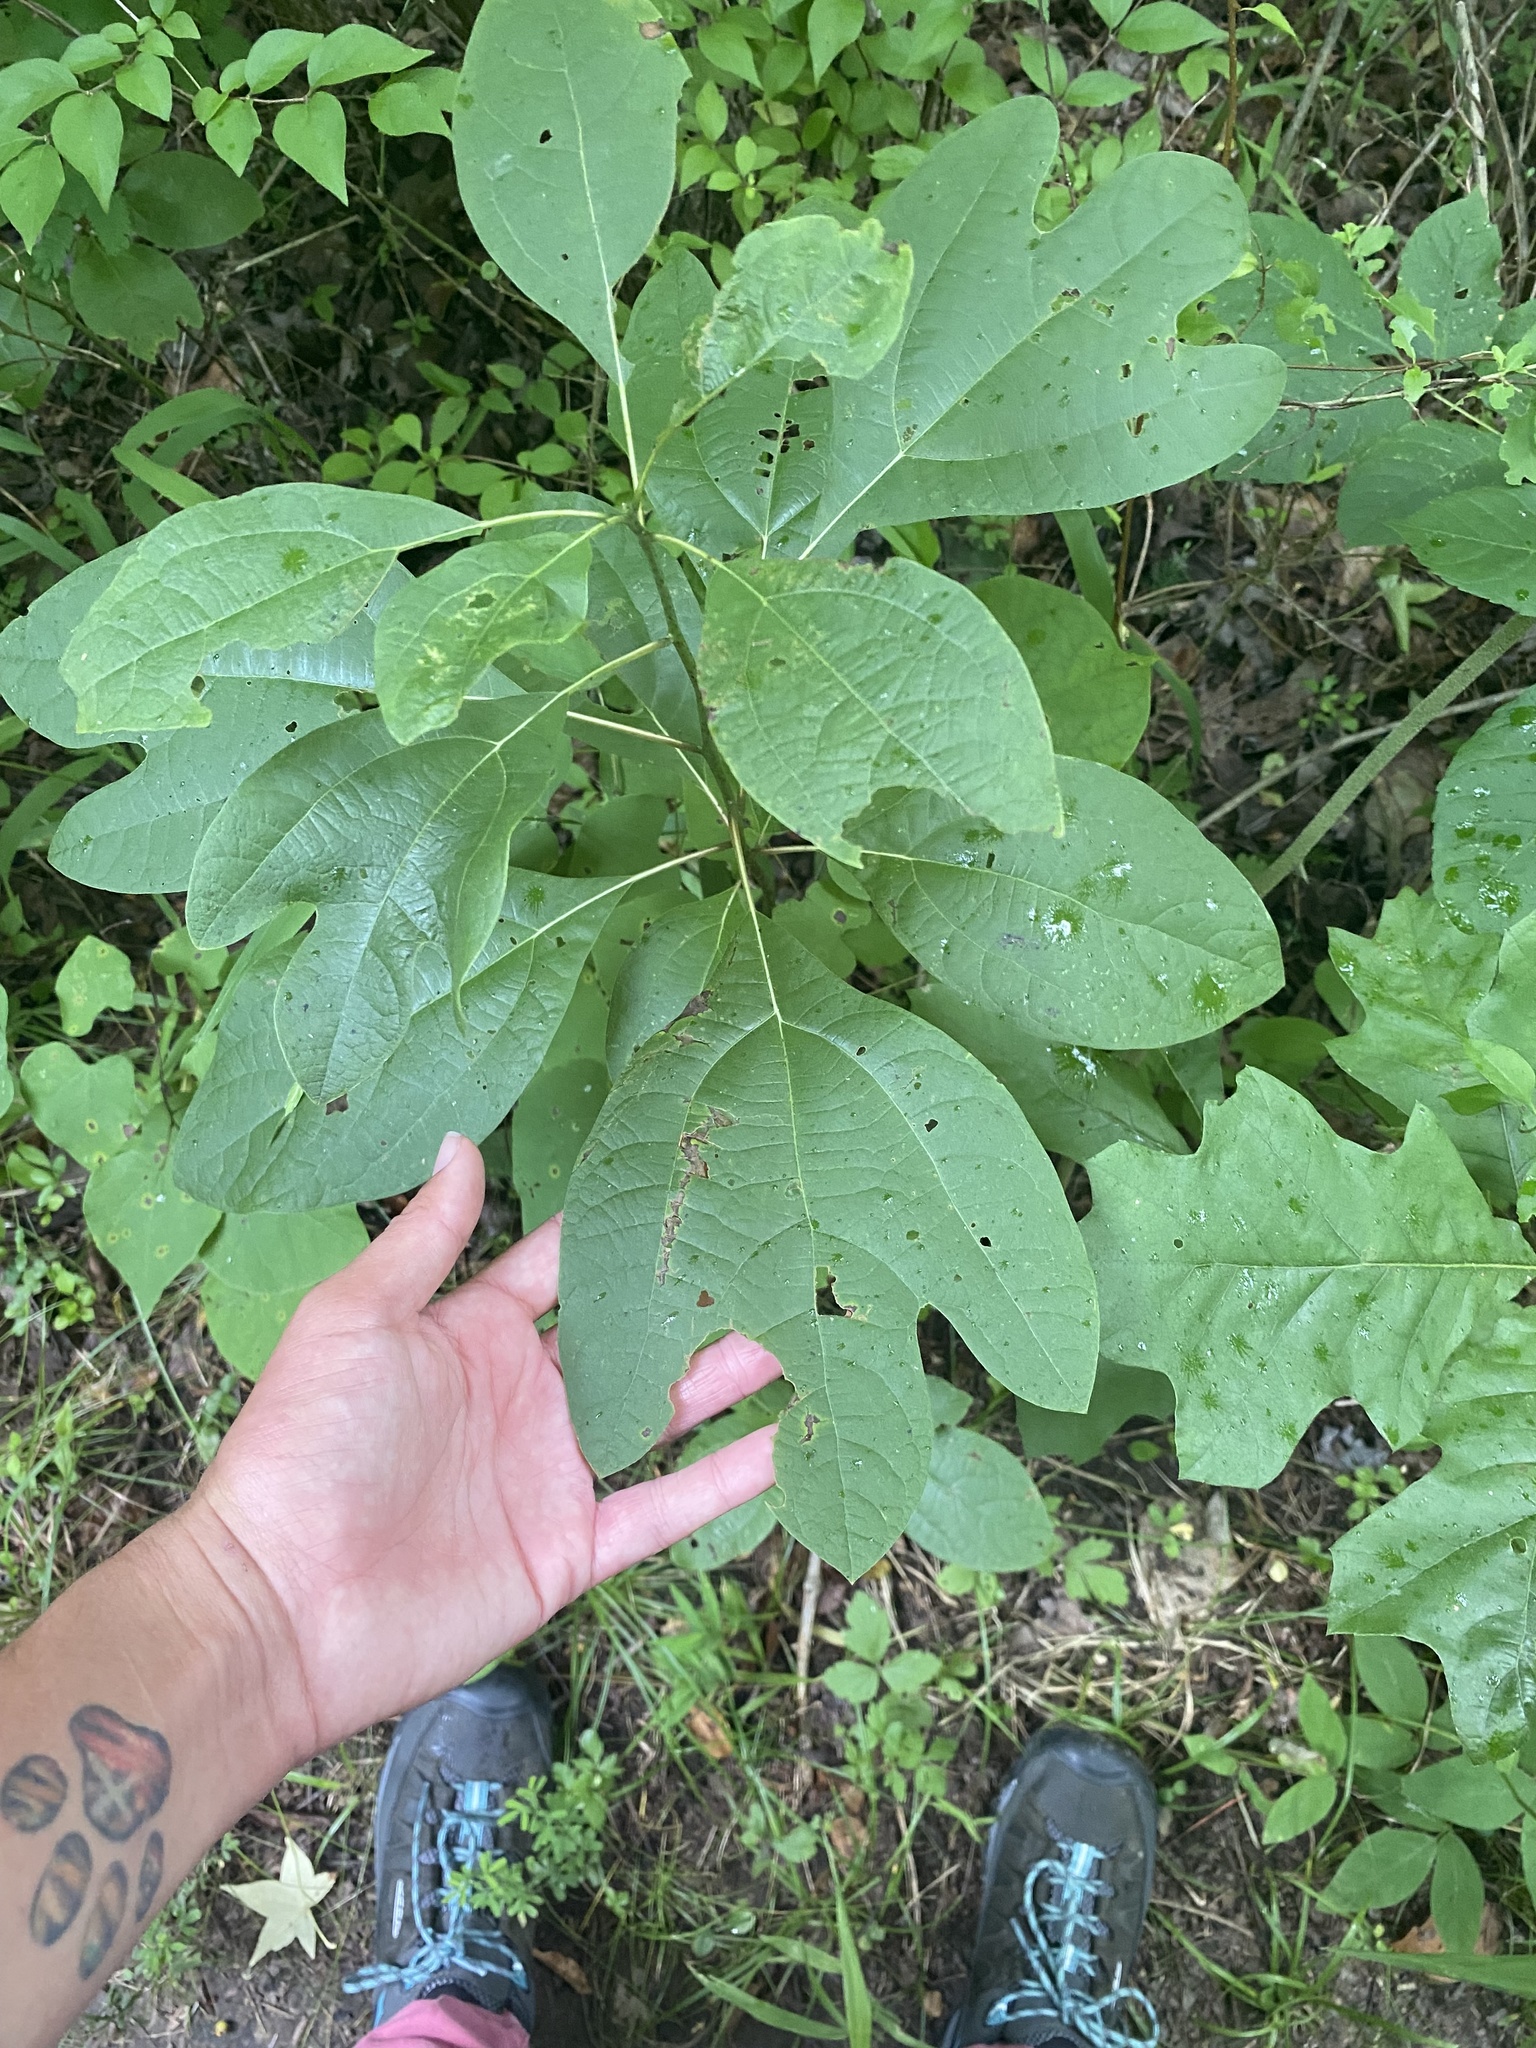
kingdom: Plantae
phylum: Tracheophyta
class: Magnoliopsida
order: Laurales
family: Lauraceae
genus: Sassafras
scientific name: Sassafras albidum
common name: Sassafras
